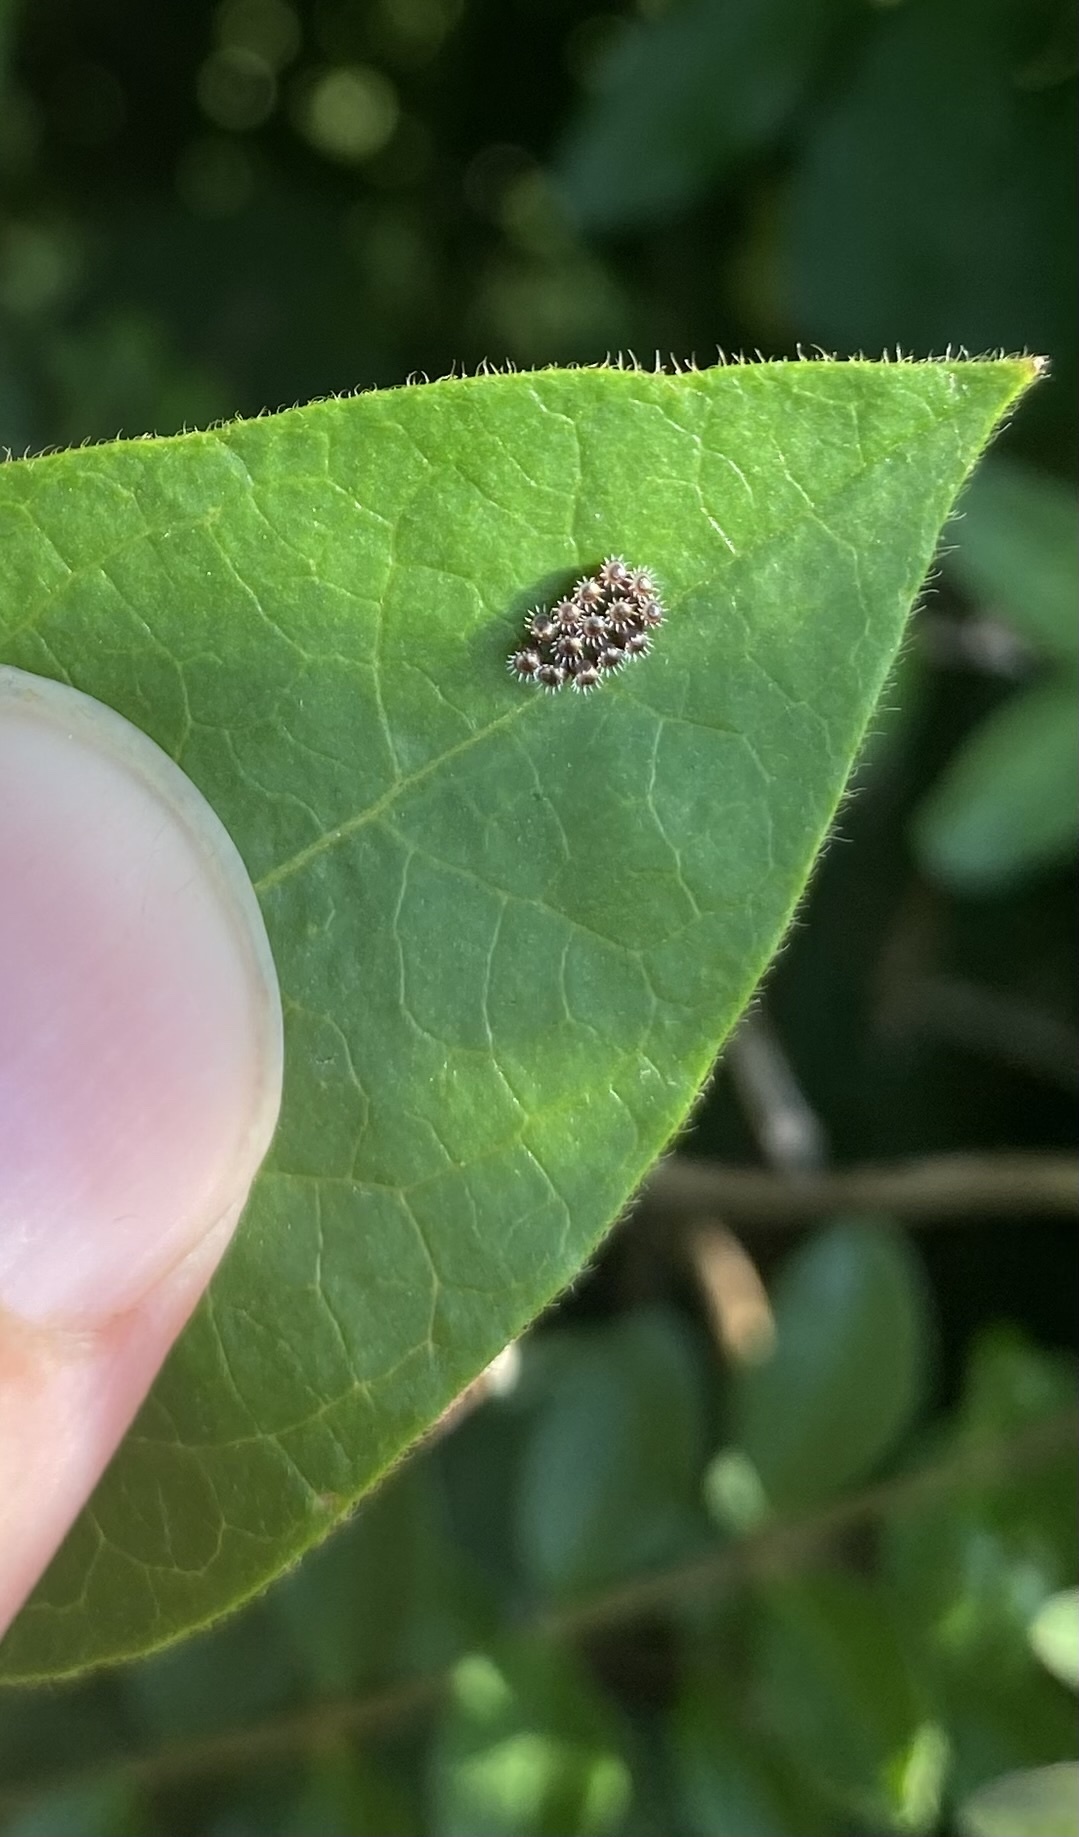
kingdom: Animalia
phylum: Arthropoda
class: Insecta
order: Hemiptera
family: Pentatomidae
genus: Oechalia
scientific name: Oechalia schellenbergii
